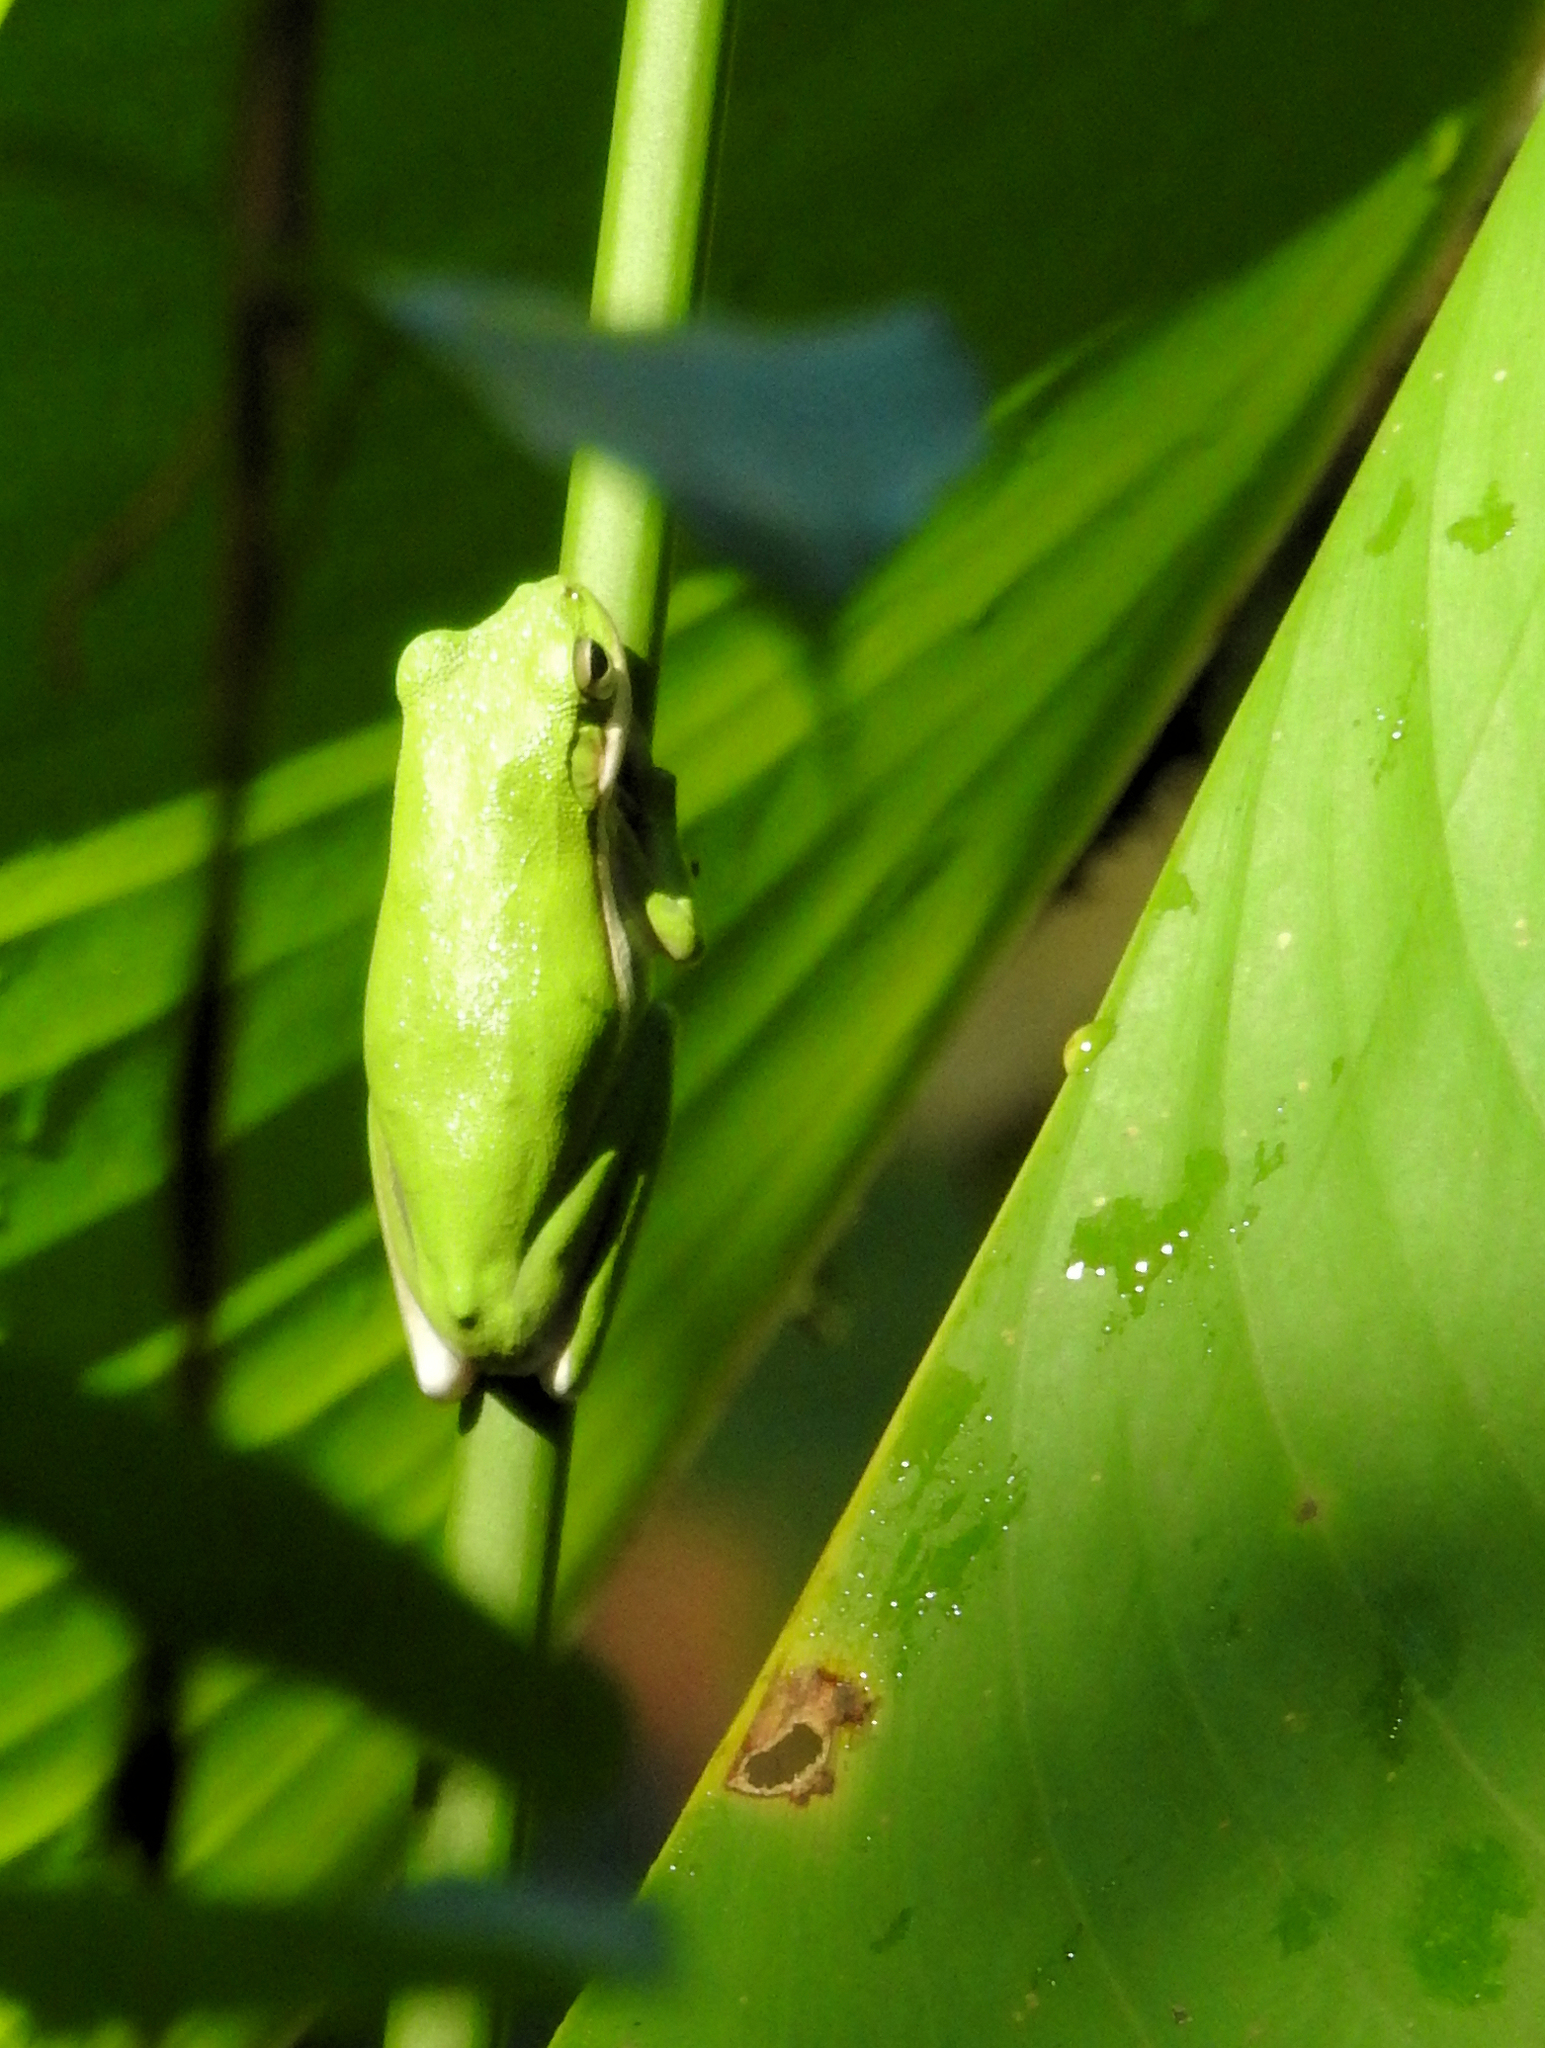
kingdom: Animalia
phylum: Chordata
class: Amphibia
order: Anura
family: Hylidae
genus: Dryophytes
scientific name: Dryophytes cinereus
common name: Green treefrog
